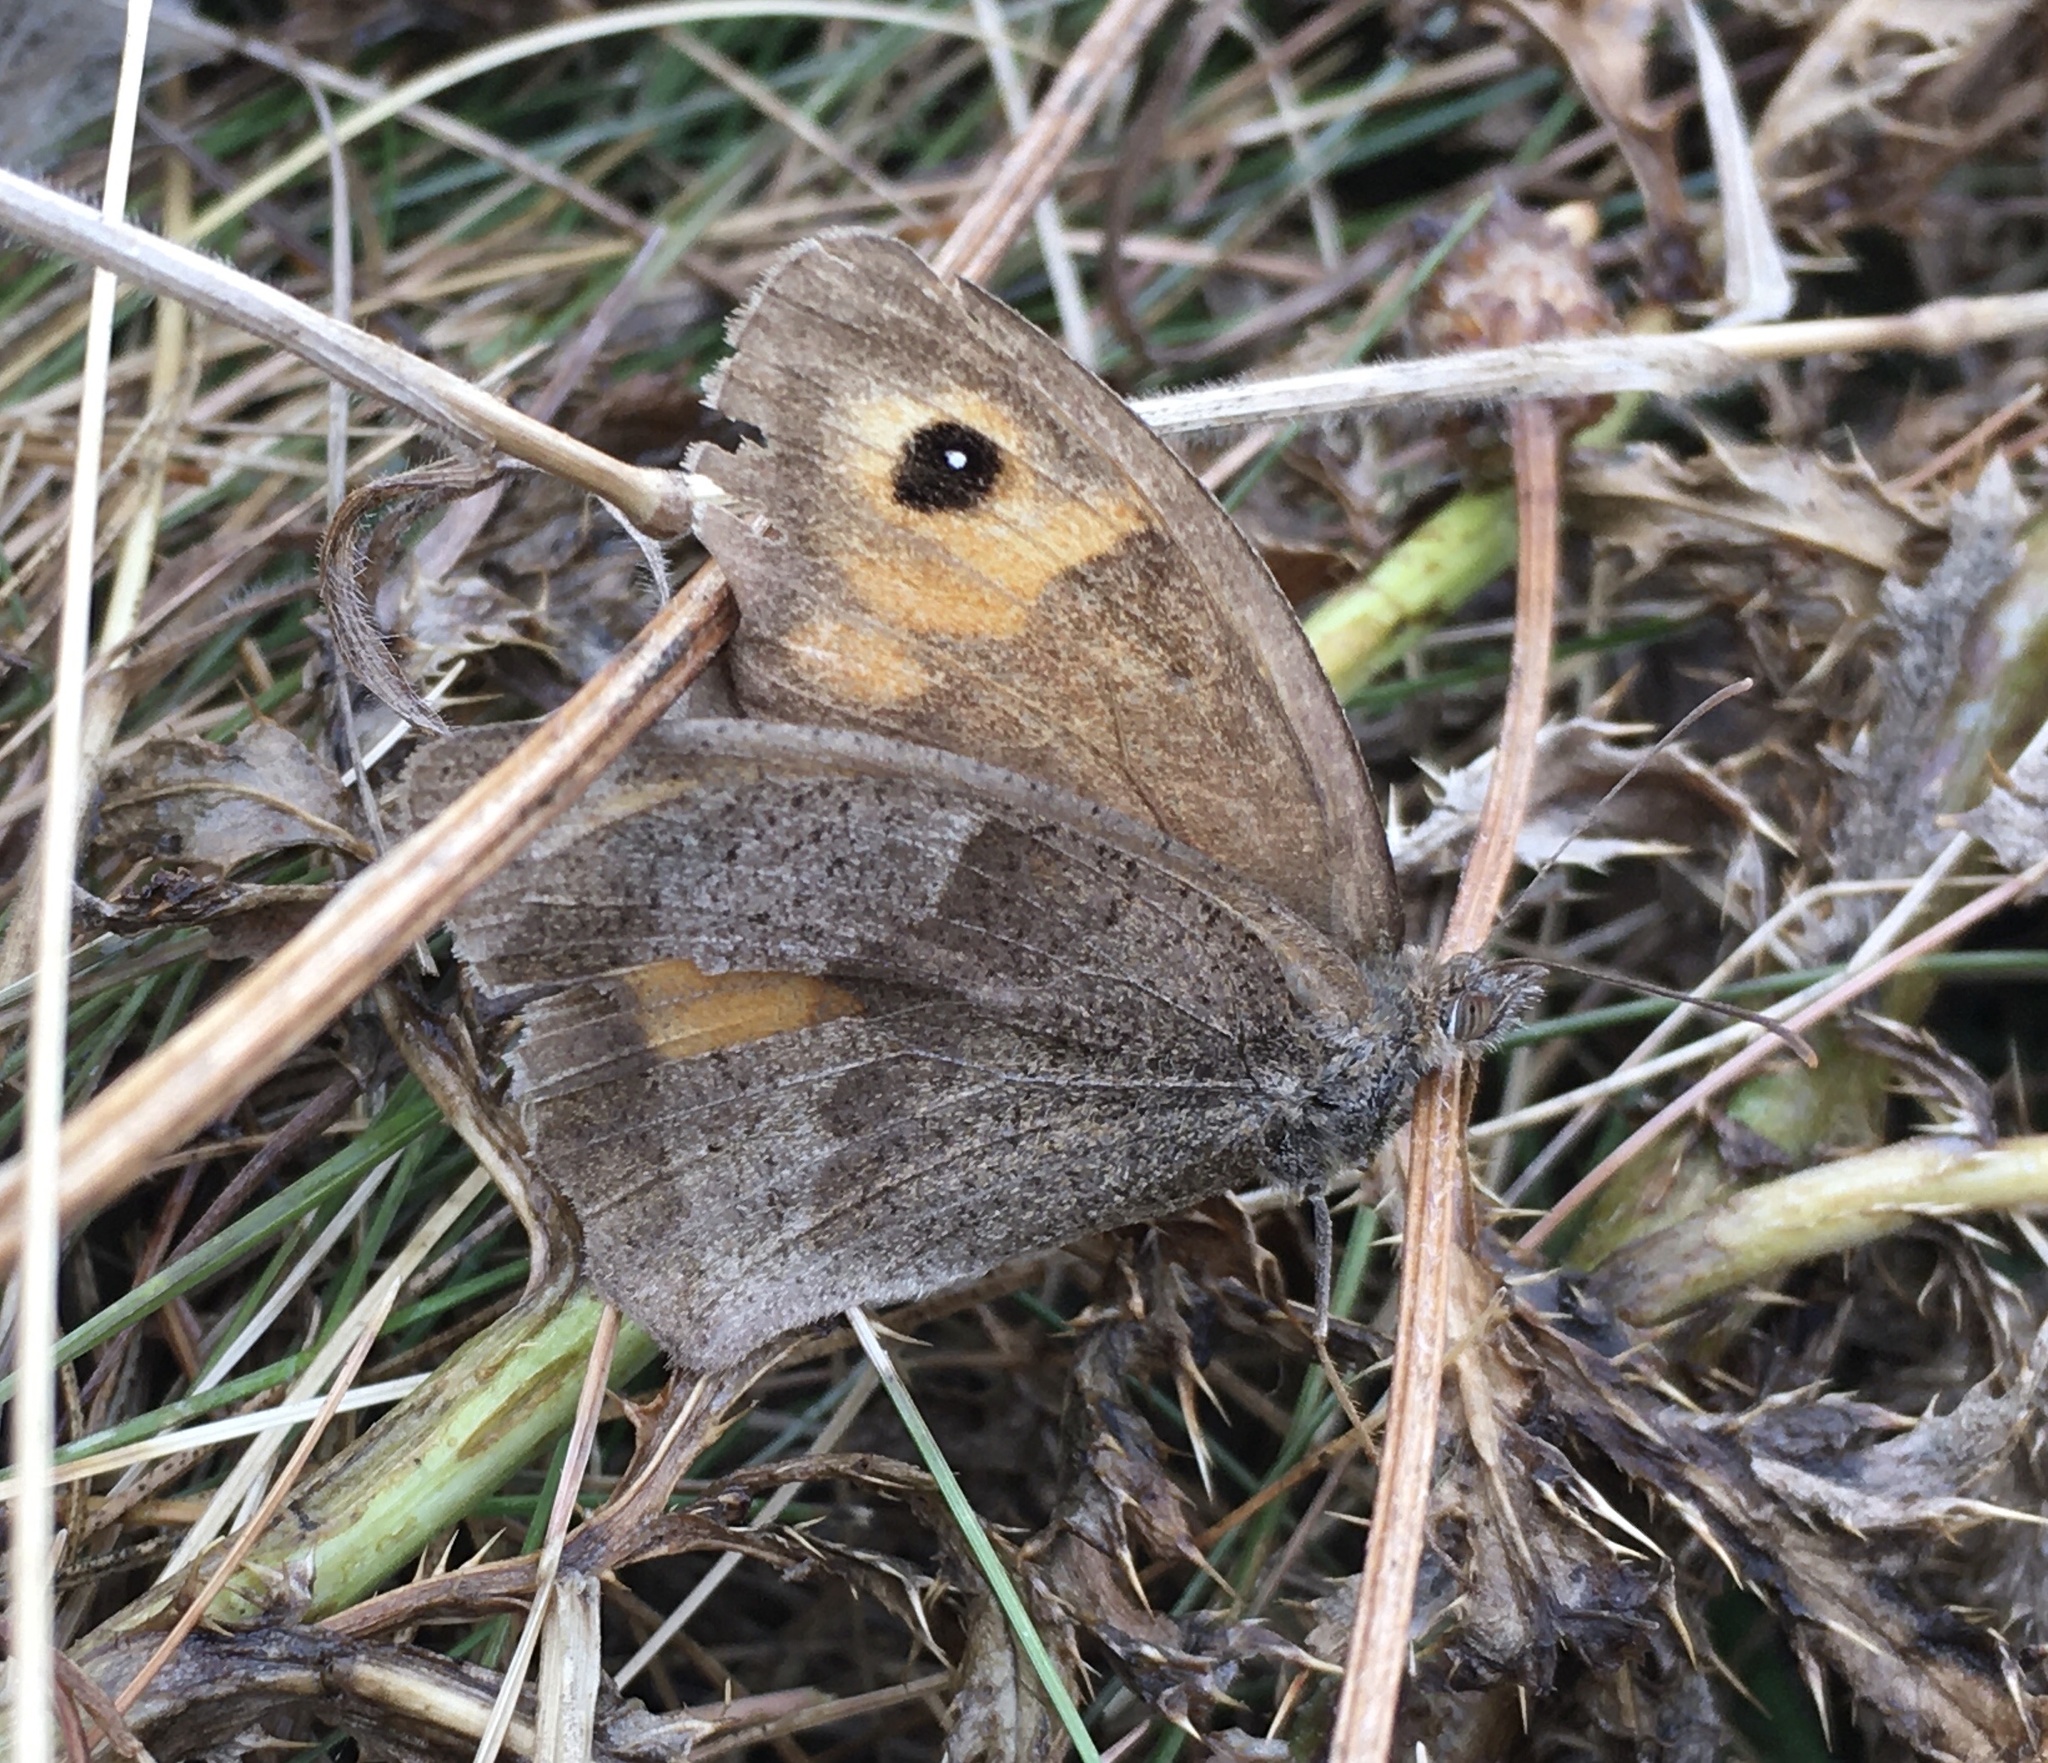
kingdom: Animalia
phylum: Arthropoda
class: Insecta
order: Lepidoptera
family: Nymphalidae
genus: Maniola
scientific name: Maniola jurtina
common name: Meadow brown
